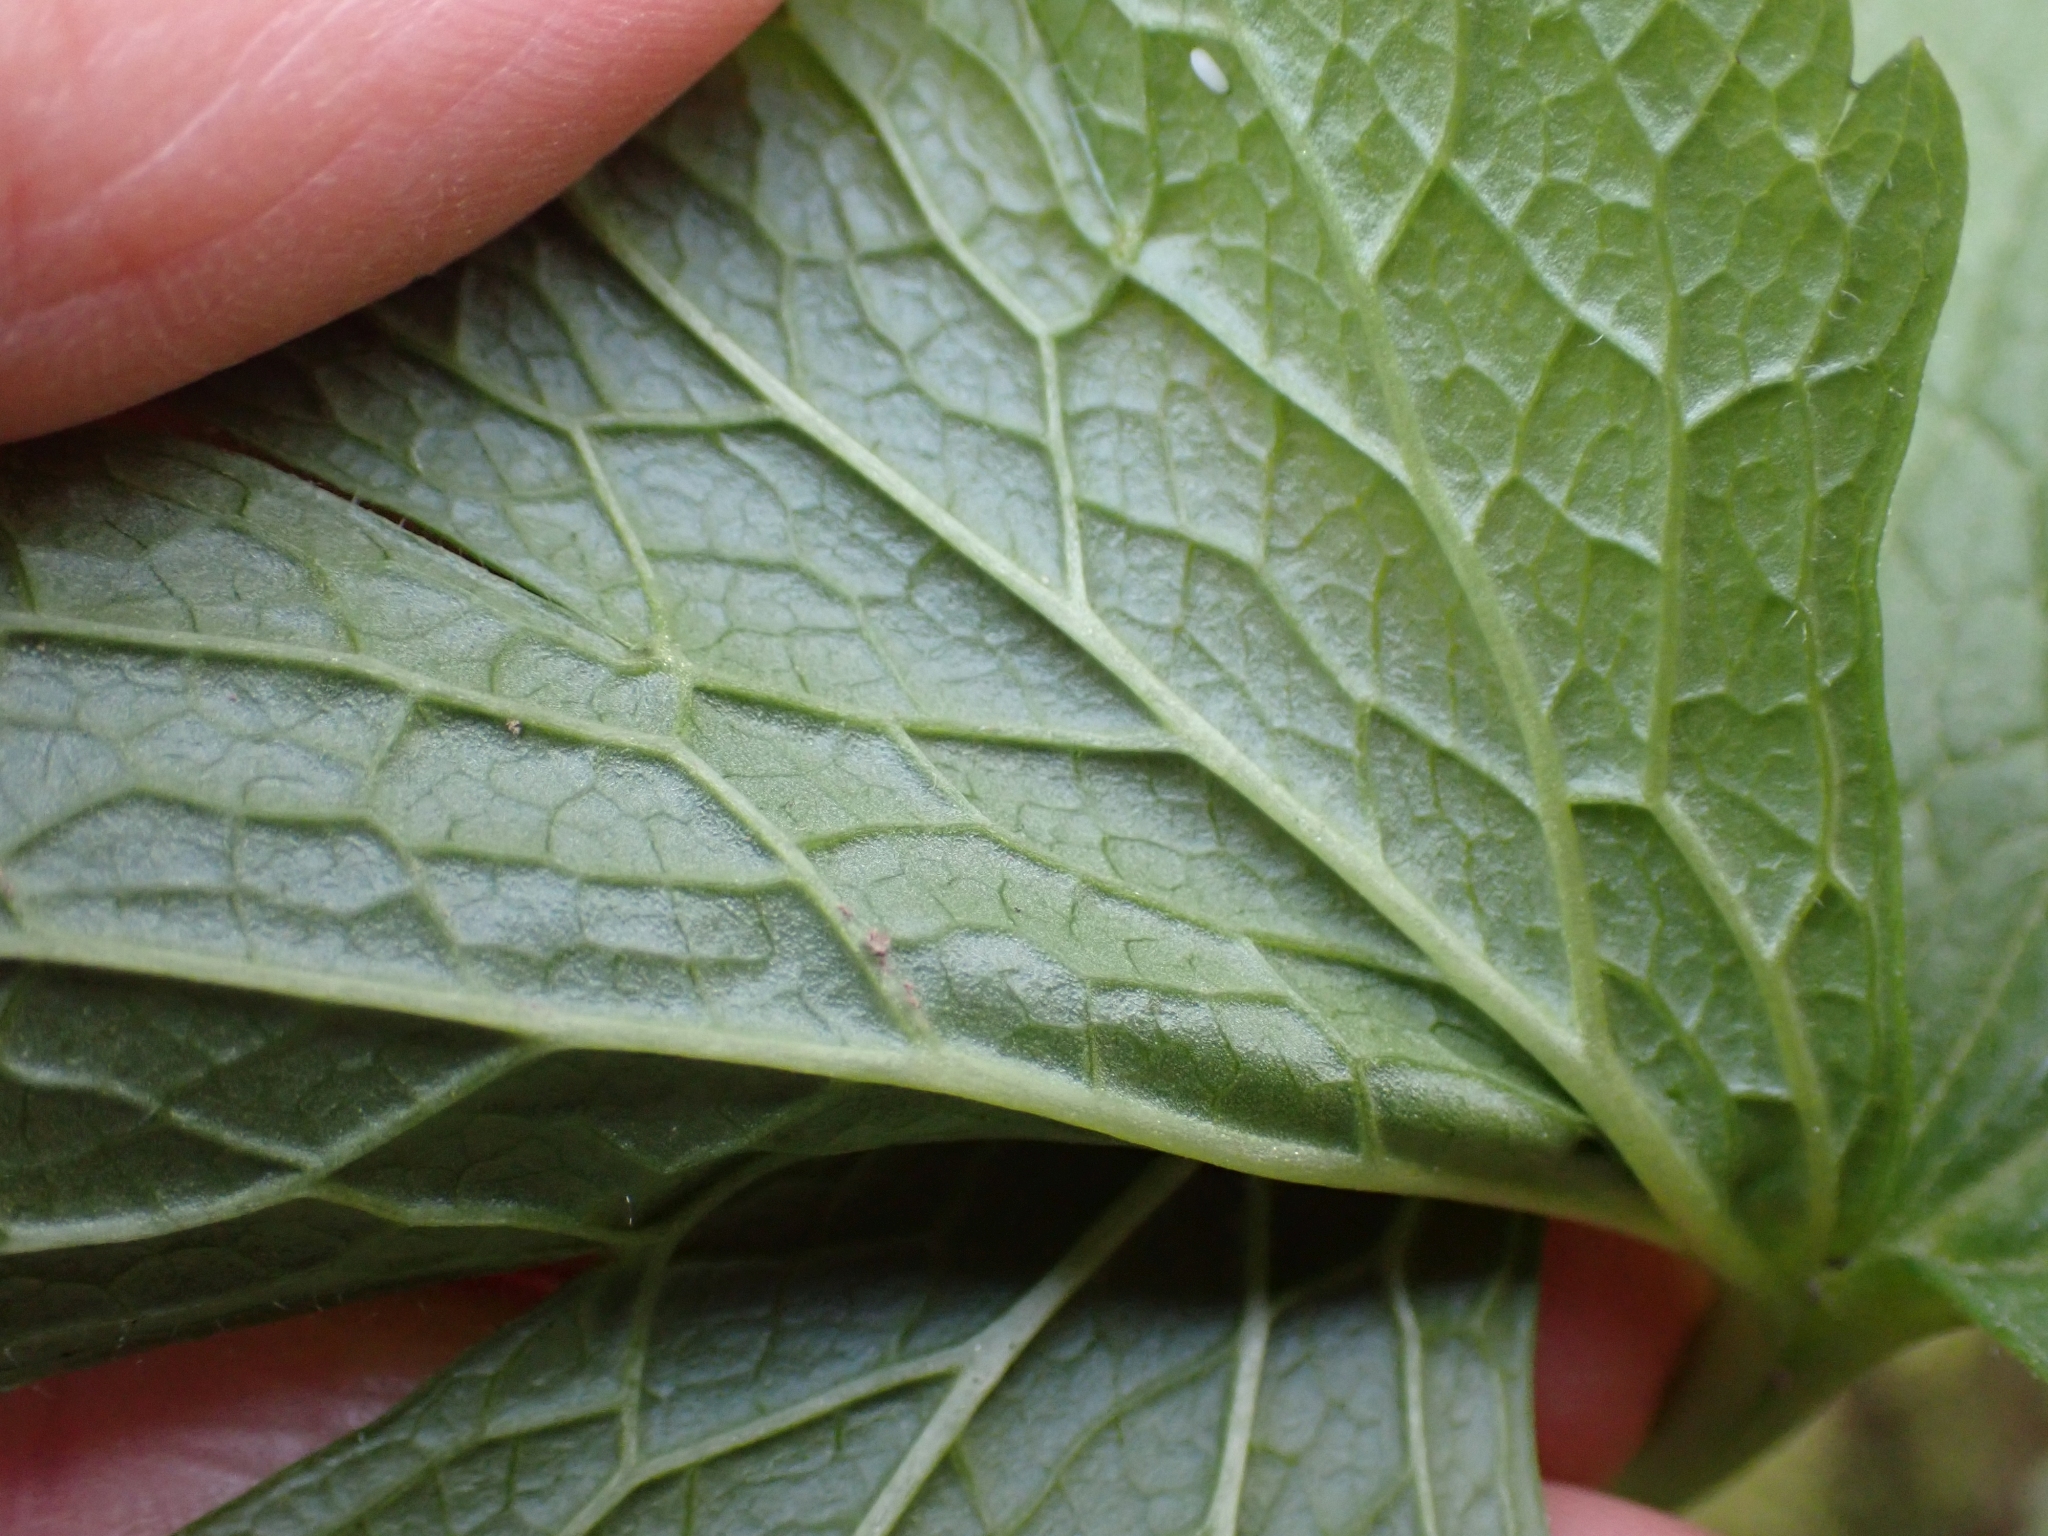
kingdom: Plantae
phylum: Tracheophyta
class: Magnoliopsida
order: Ranunculales
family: Ranunculaceae
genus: Trautvetteria
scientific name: Trautvetteria carolinensis
